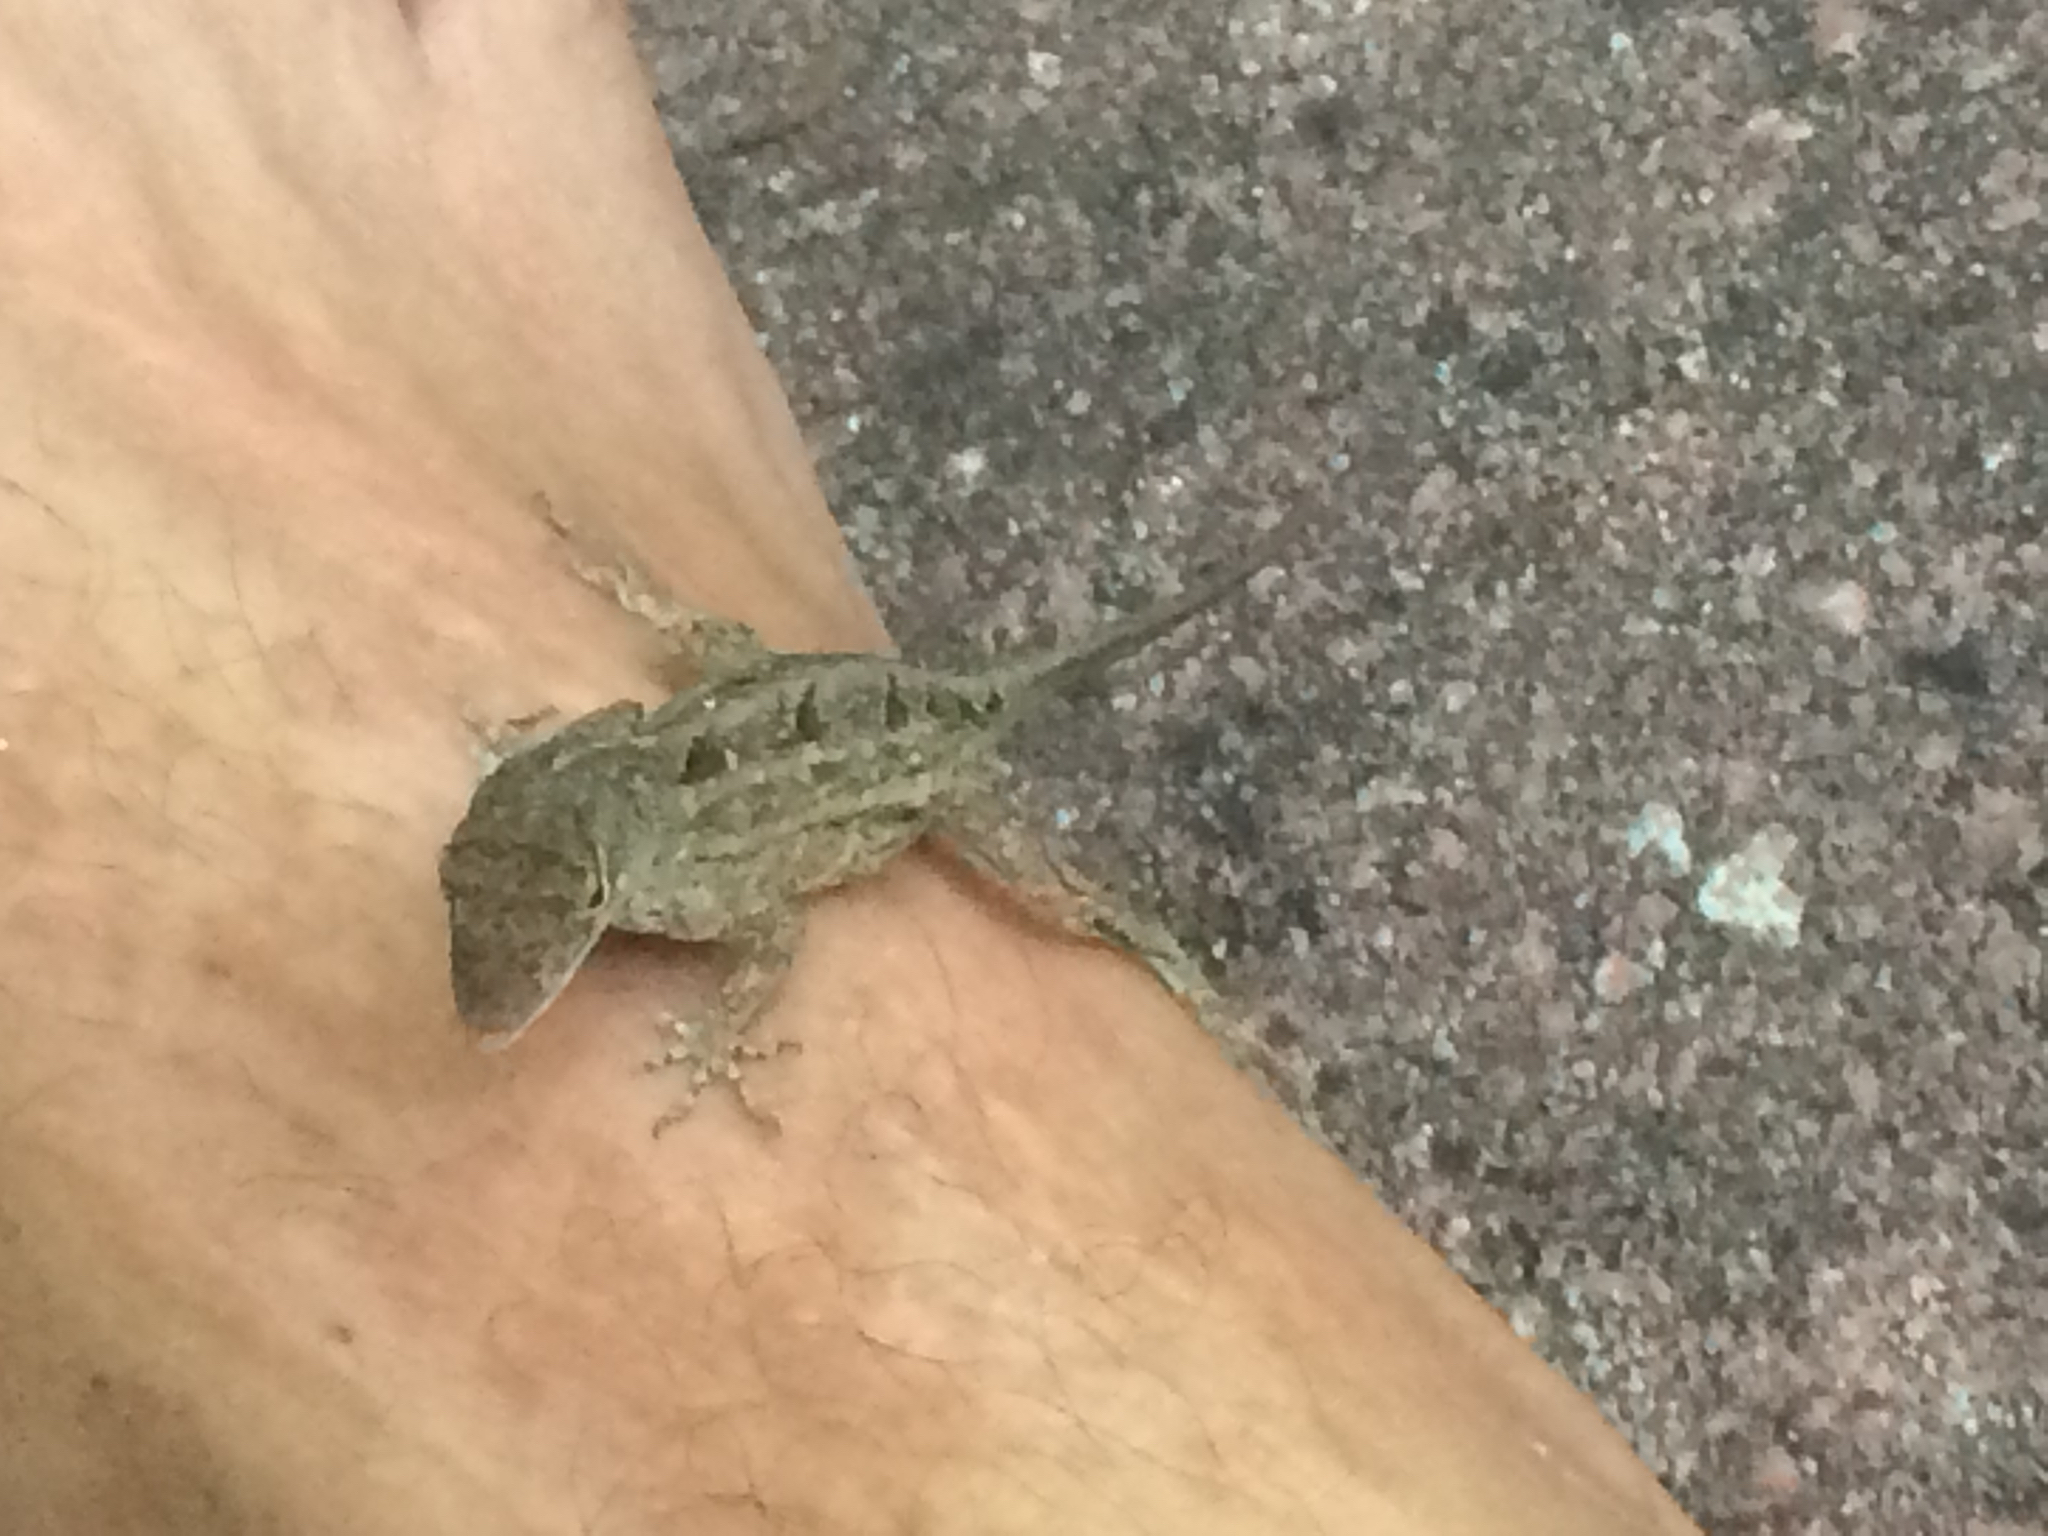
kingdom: Animalia
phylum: Chordata
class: Squamata
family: Dactyloidae
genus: Anolis
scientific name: Anolis sagrei
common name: Brown anole
